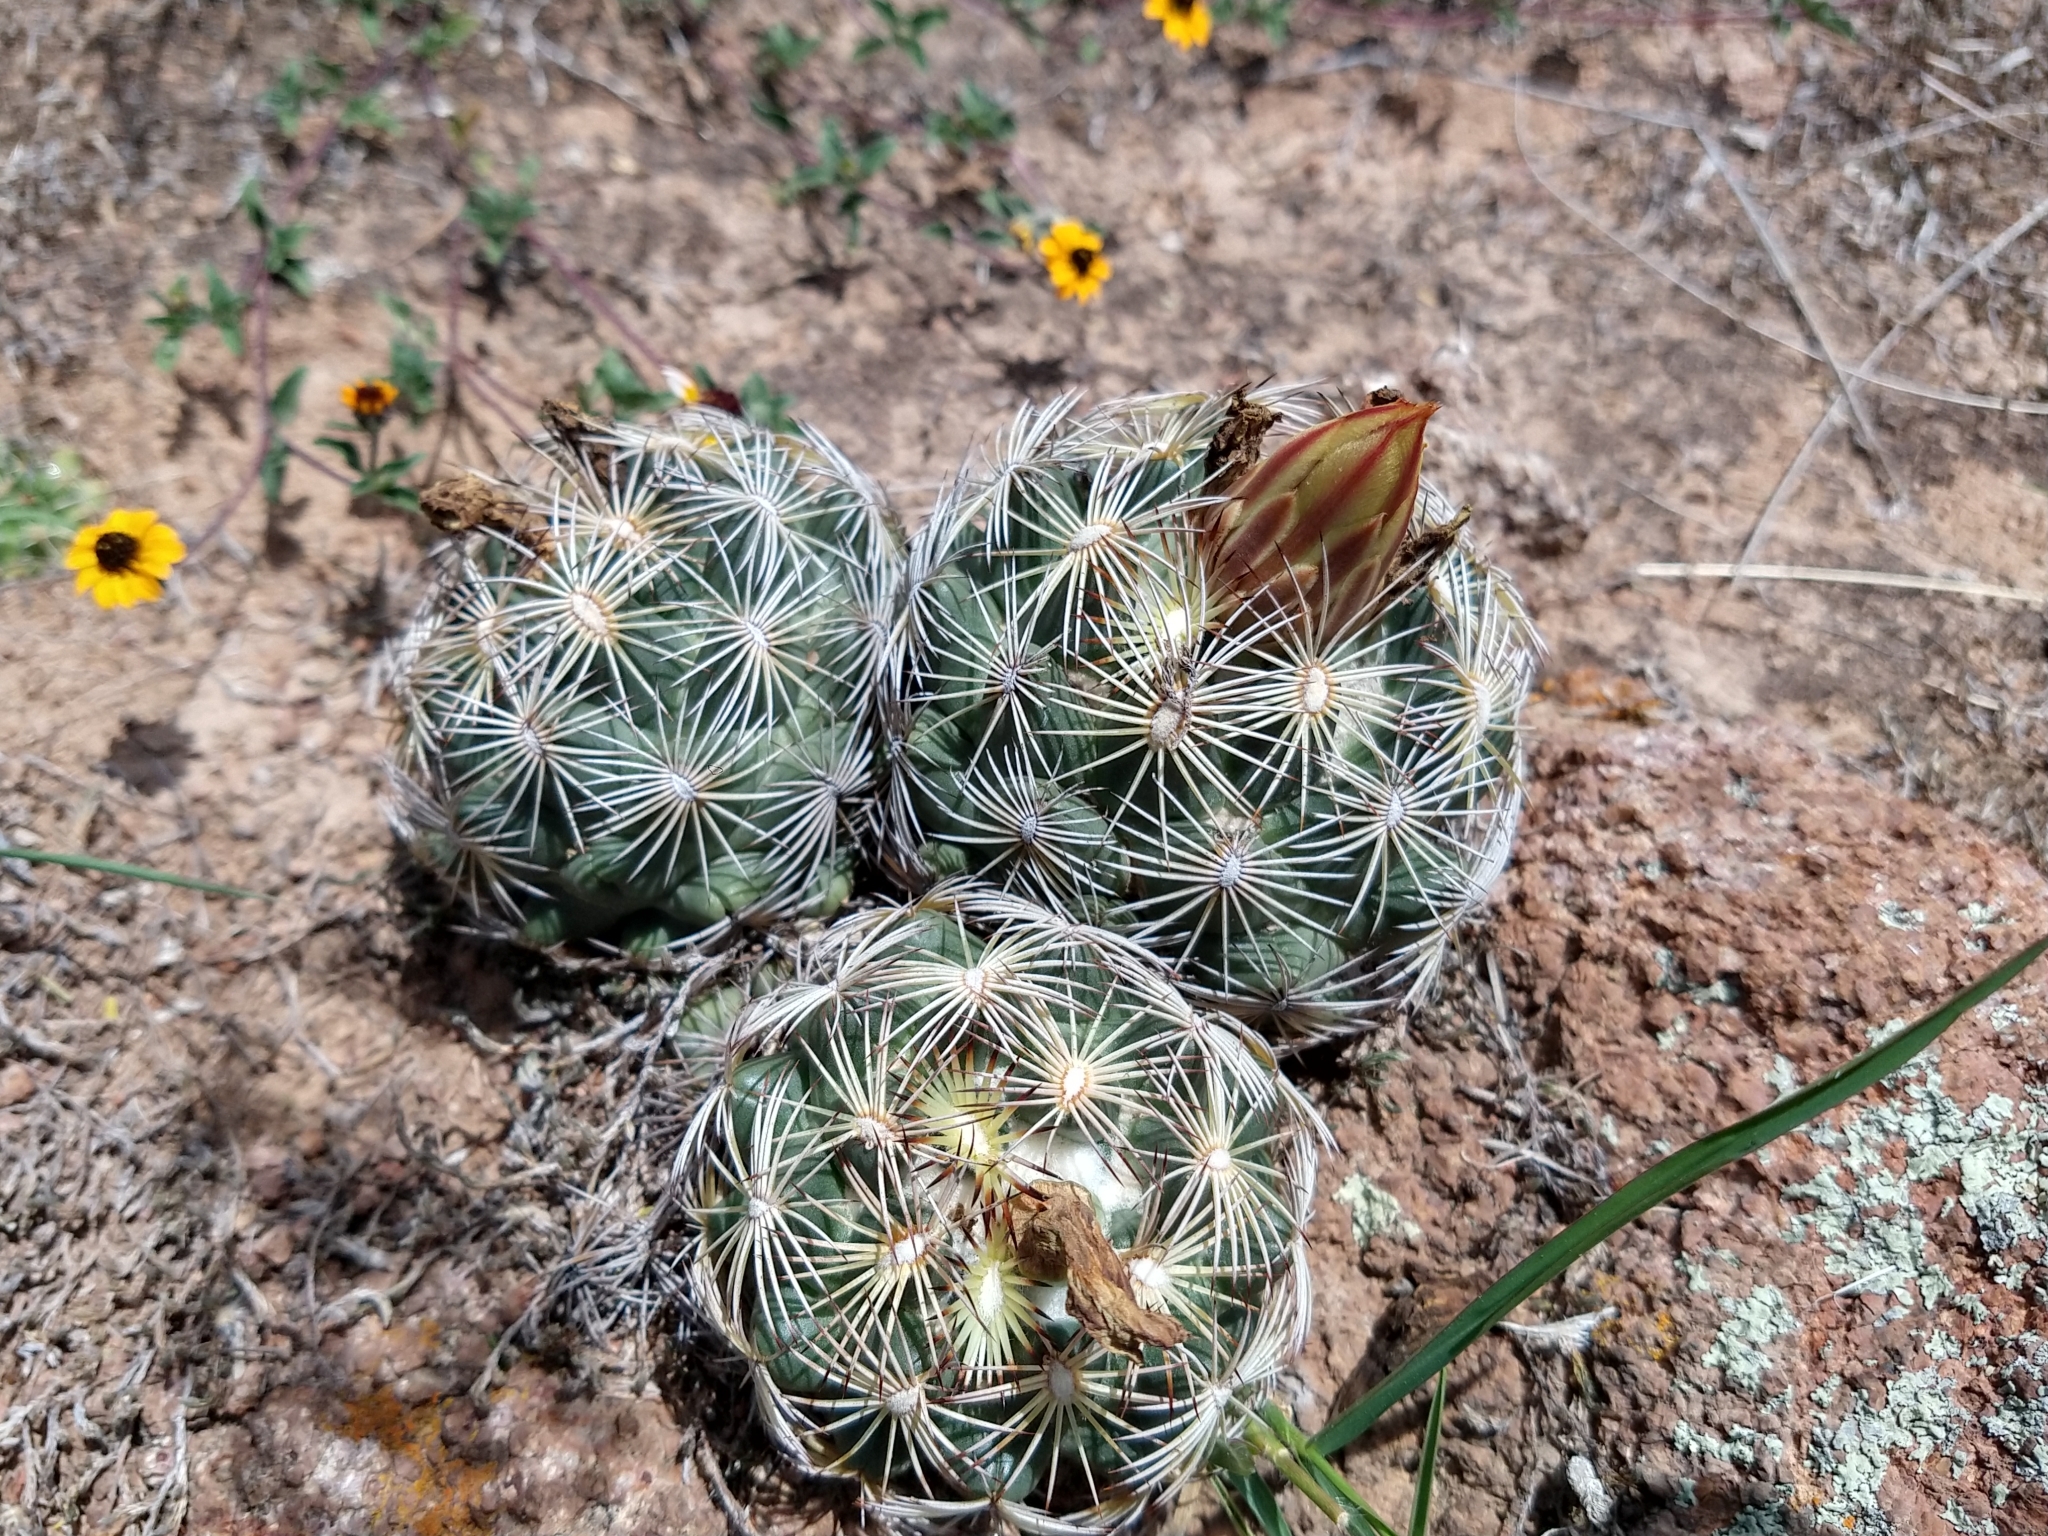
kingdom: Plantae
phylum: Tracheophyta
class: Magnoliopsida
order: Caryophyllales
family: Cactaceae
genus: Coryphantha
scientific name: Coryphantha cornifera
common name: Rhinoceros cactus
